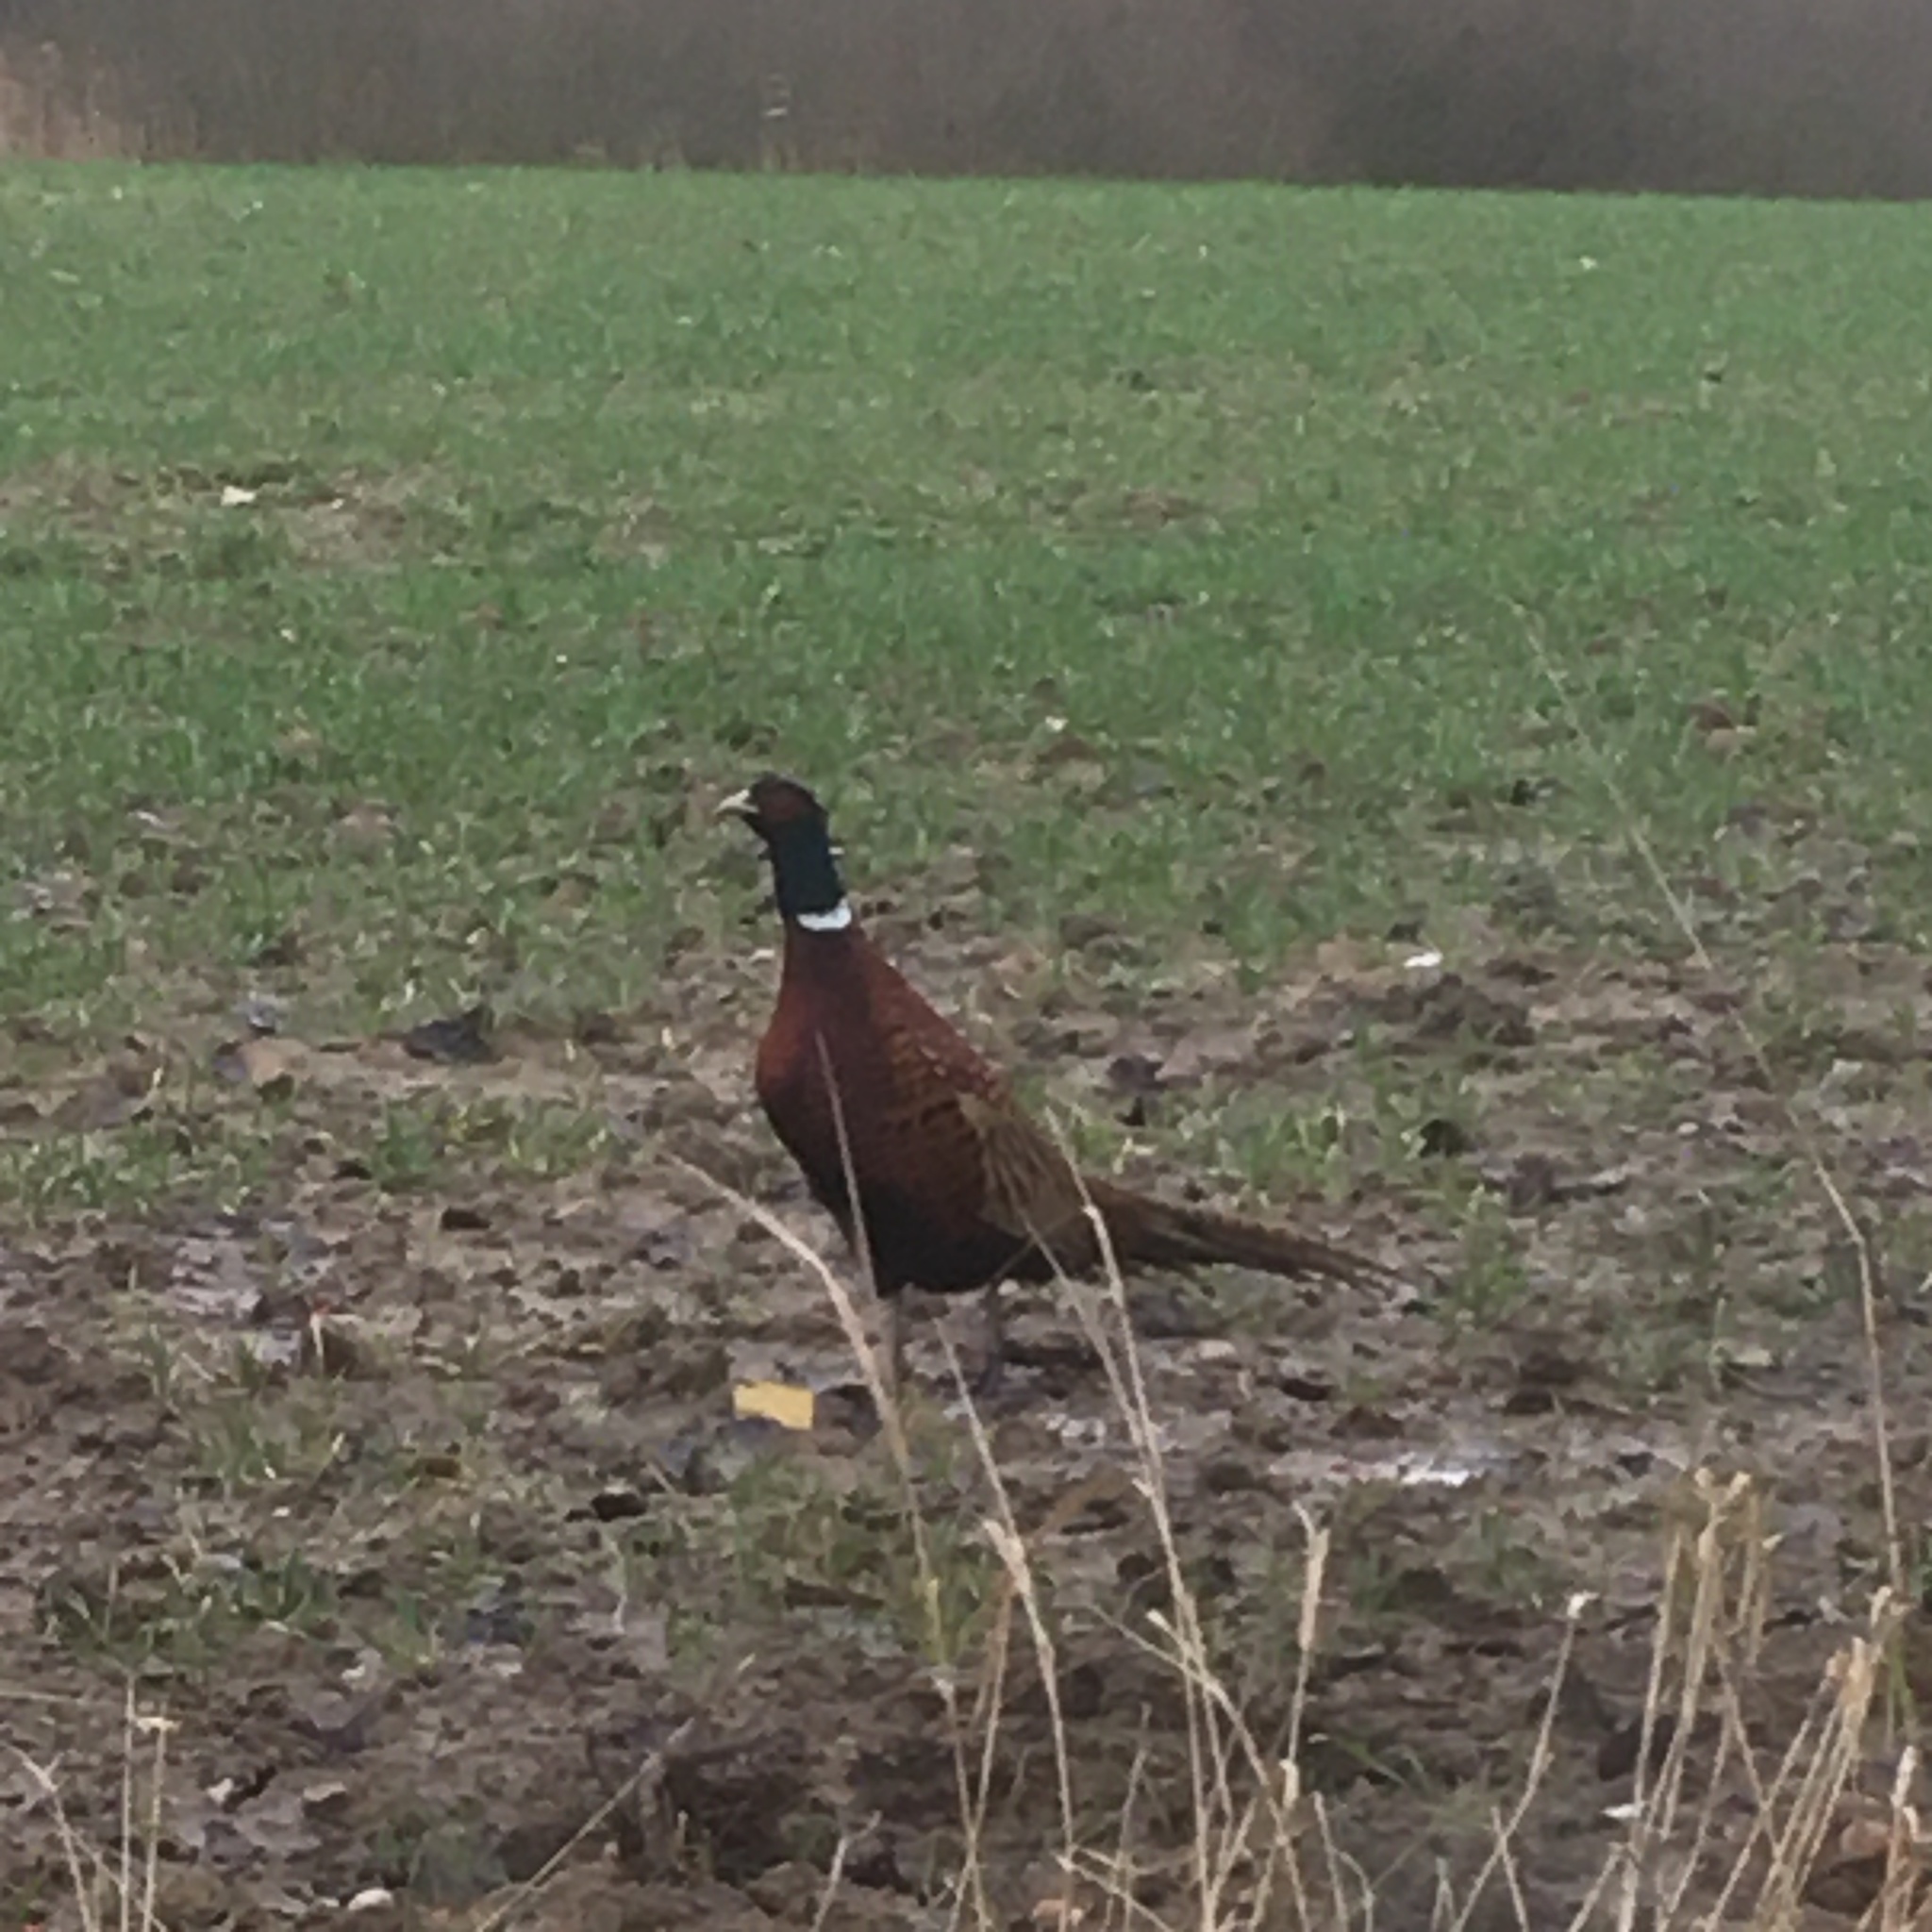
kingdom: Animalia
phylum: Chordata
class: Aves
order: Galliformes
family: Phasianidae
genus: Phasianus
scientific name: Phasianus colchicus
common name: Common pheasant
